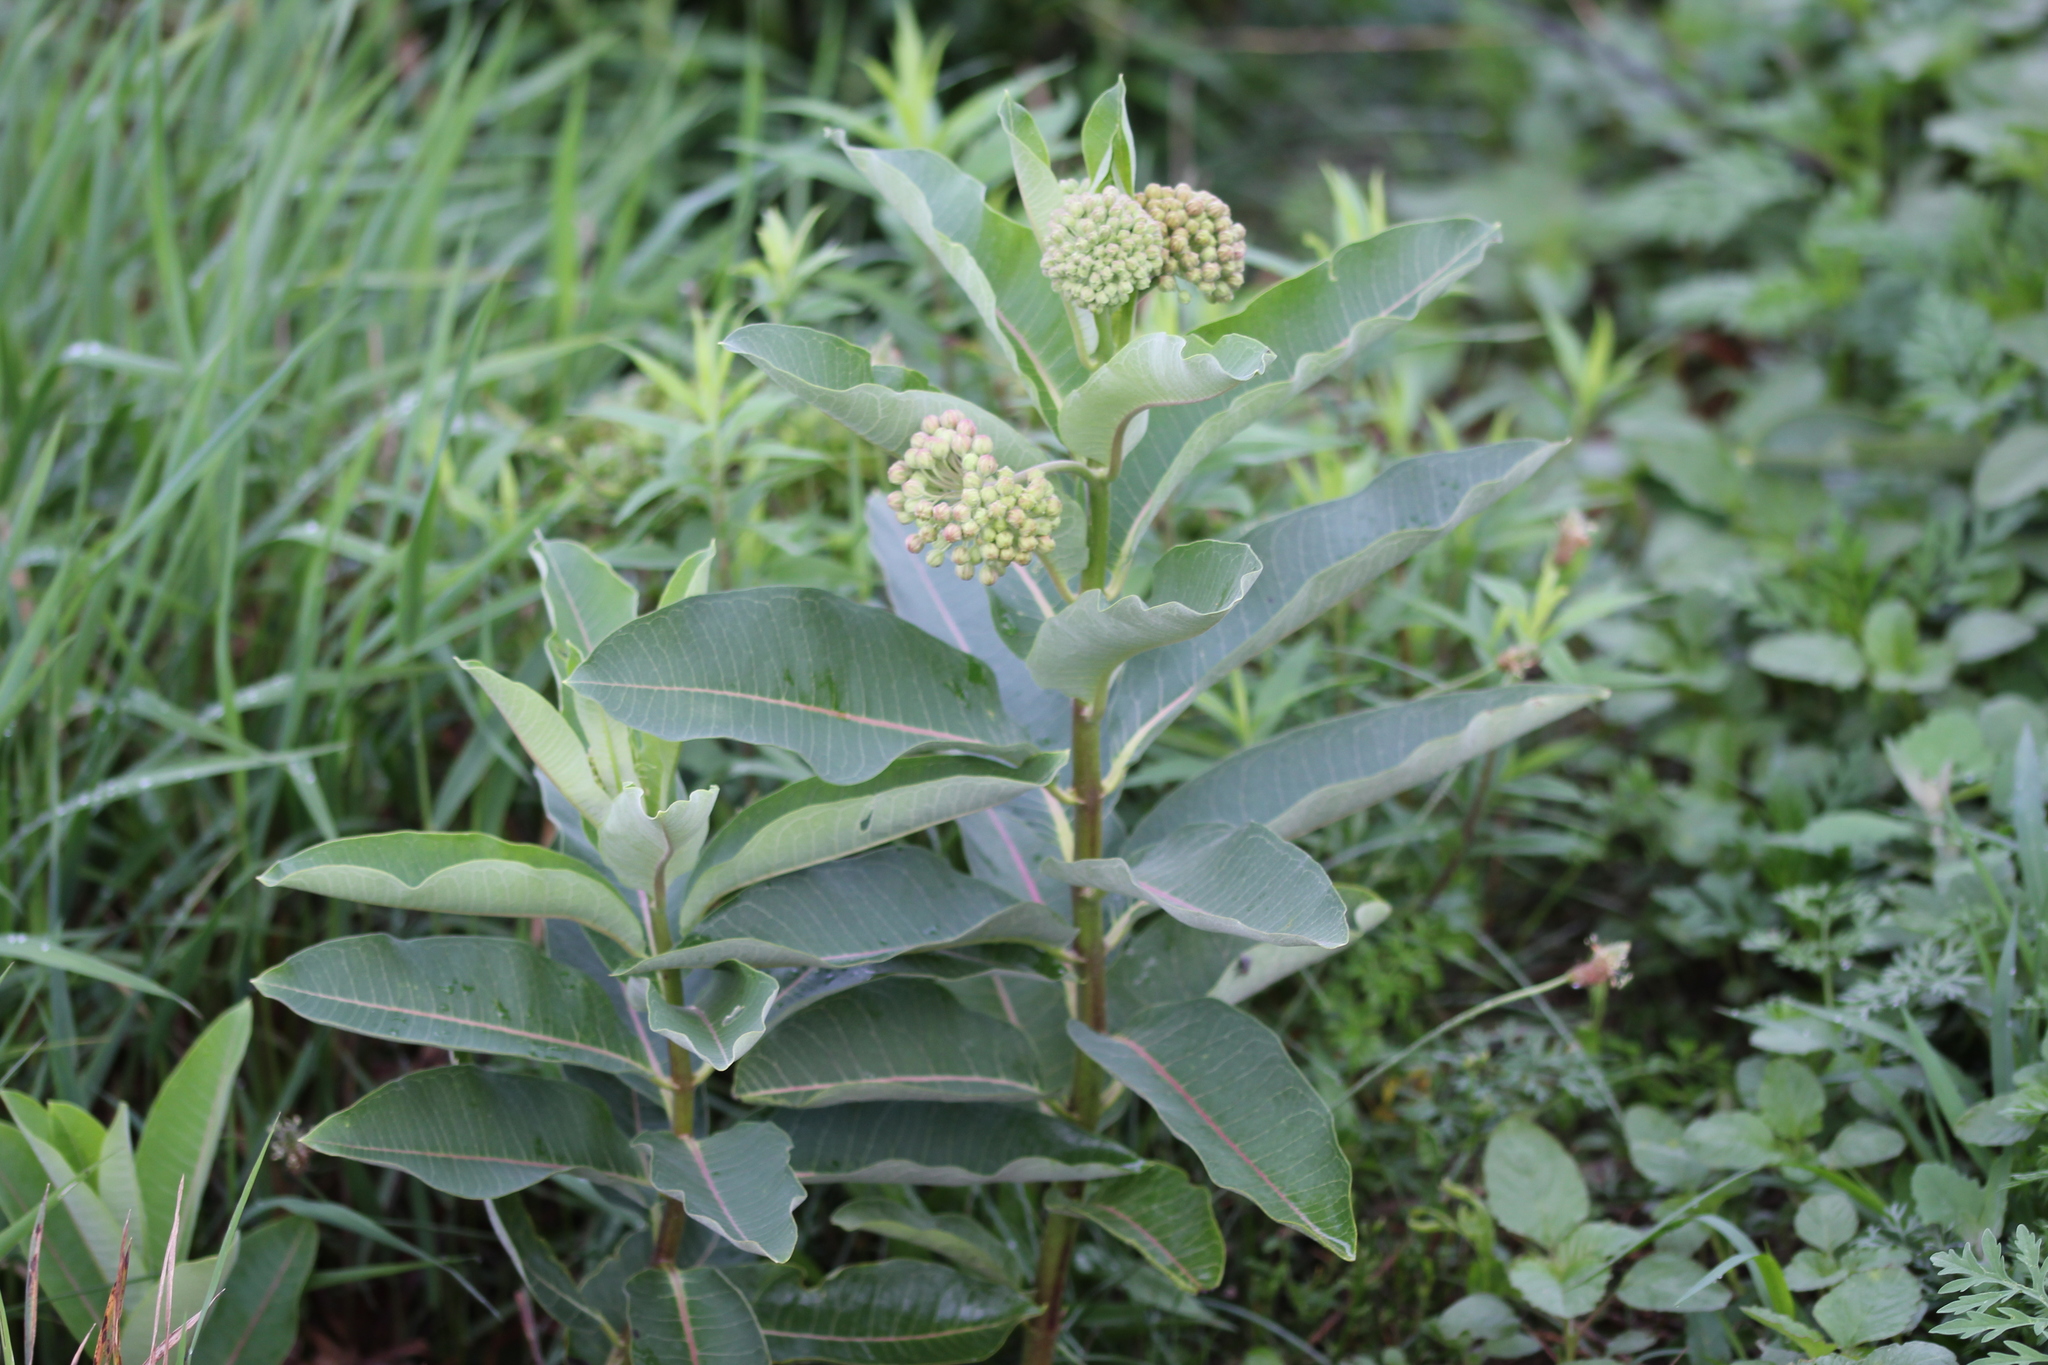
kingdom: Plantae
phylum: Tracheophyta
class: Magnoliopsida
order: Gentianales
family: Apocynaceae
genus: Asclepias
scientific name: Asclepias syriaca
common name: Common milkweed
